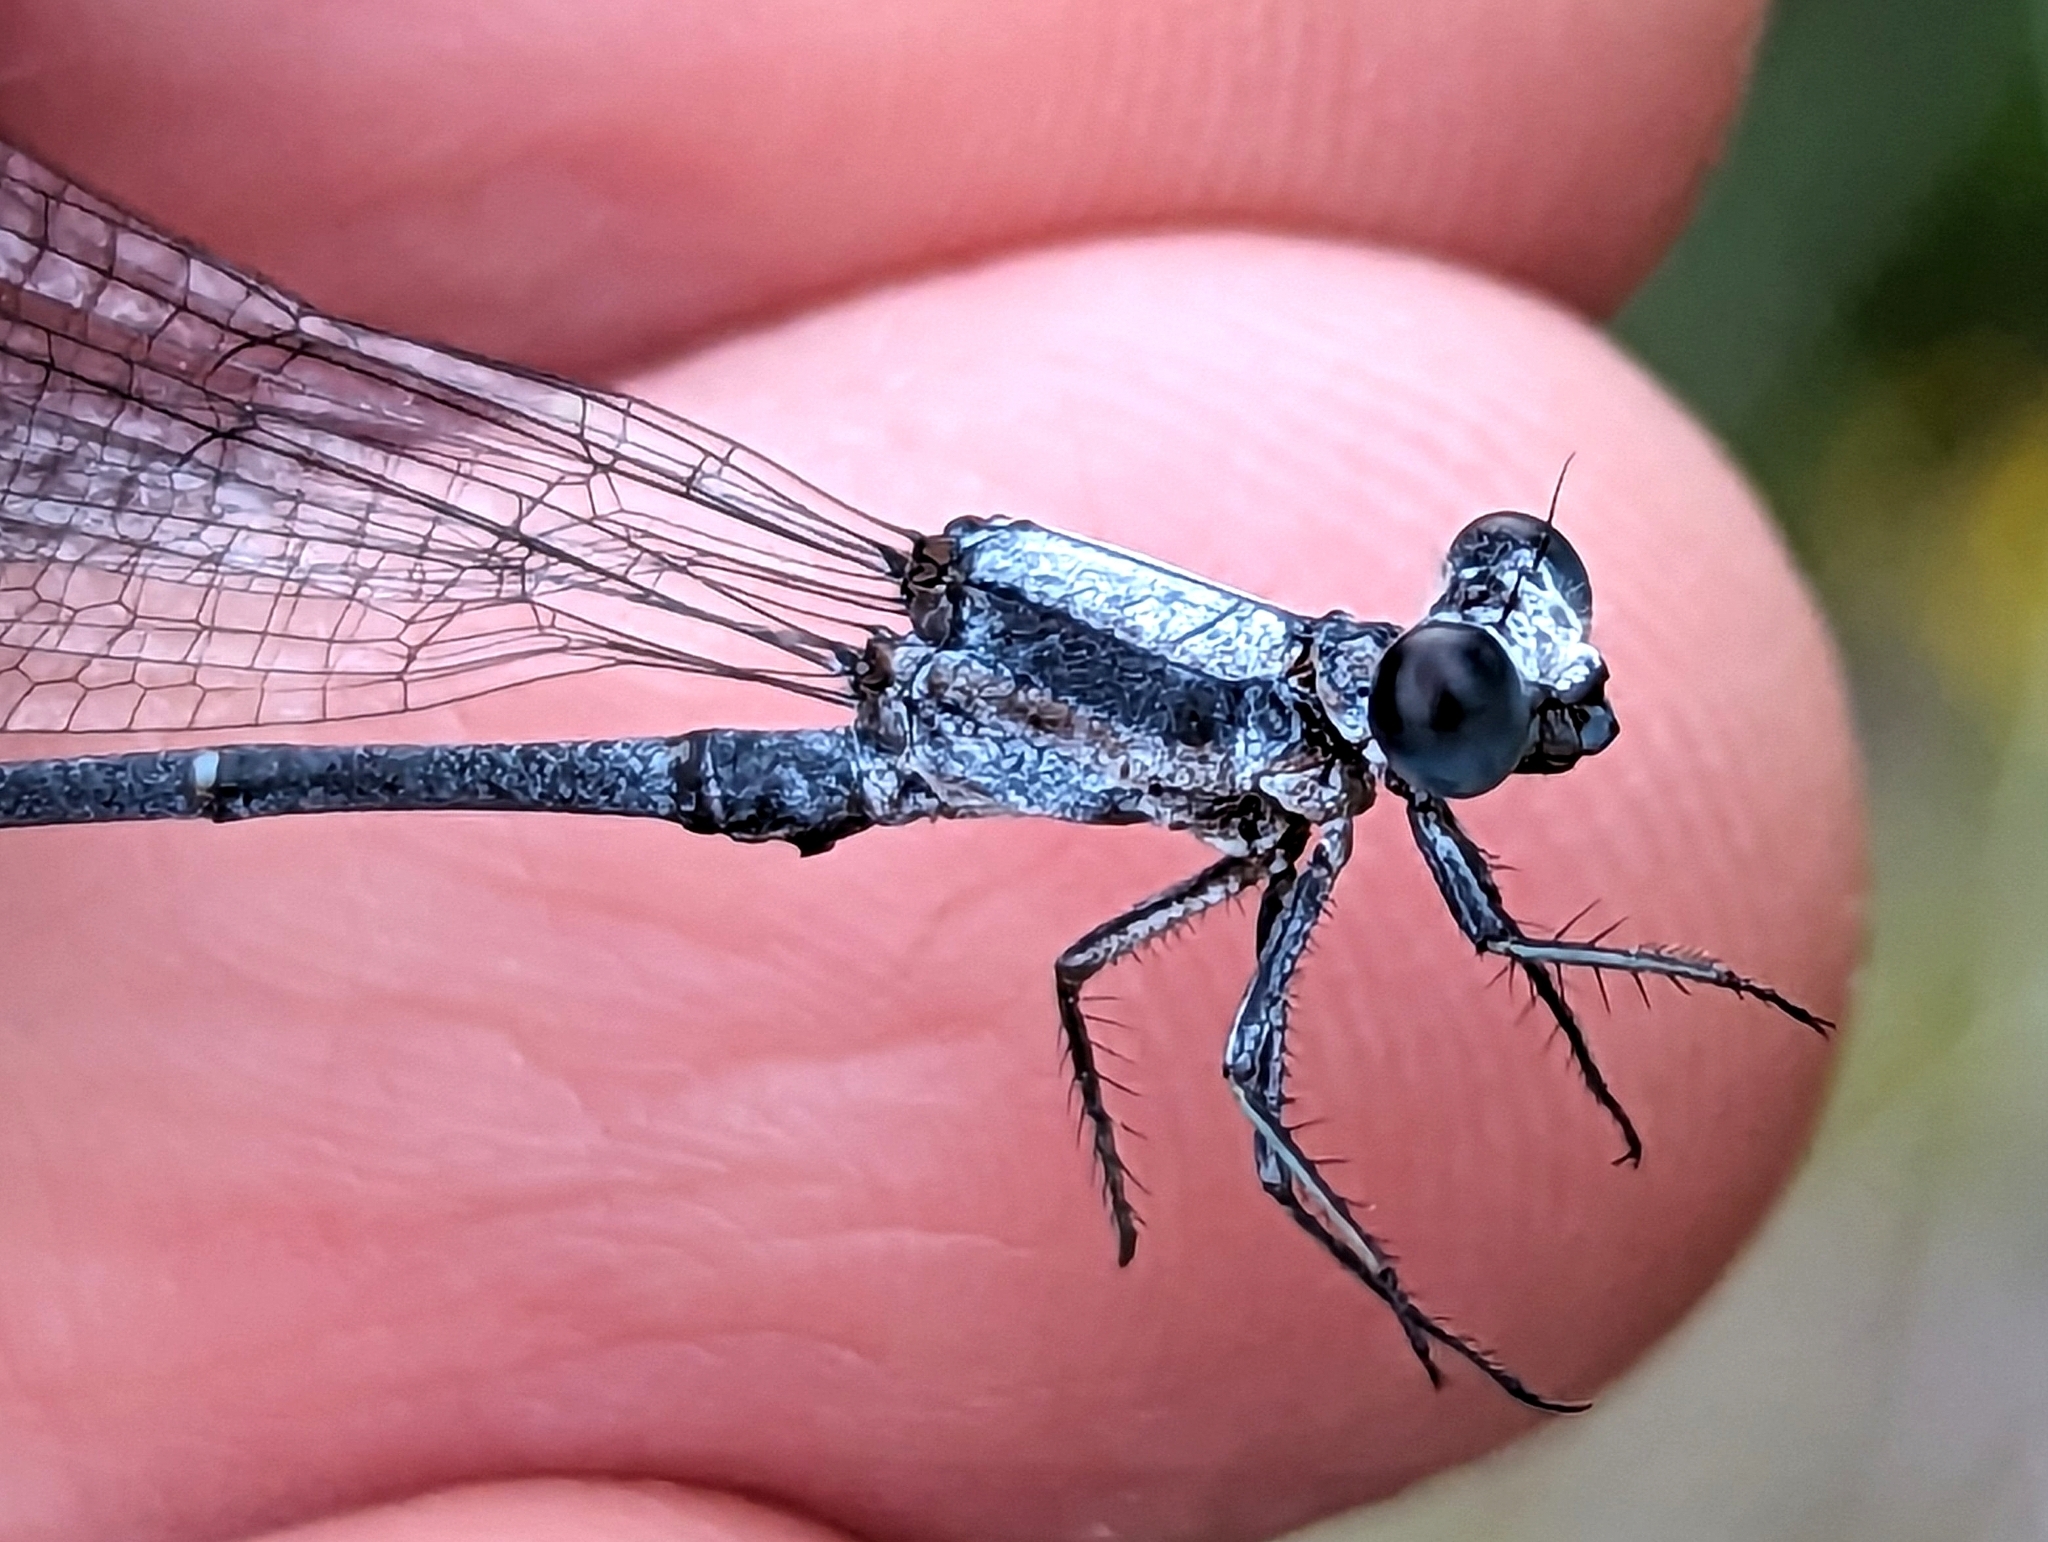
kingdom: Animalia
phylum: Arthropoda
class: Insecta
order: Odonata
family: Coenagrionidae
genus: Argia
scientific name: Argia moesta
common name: Powdered dancer
